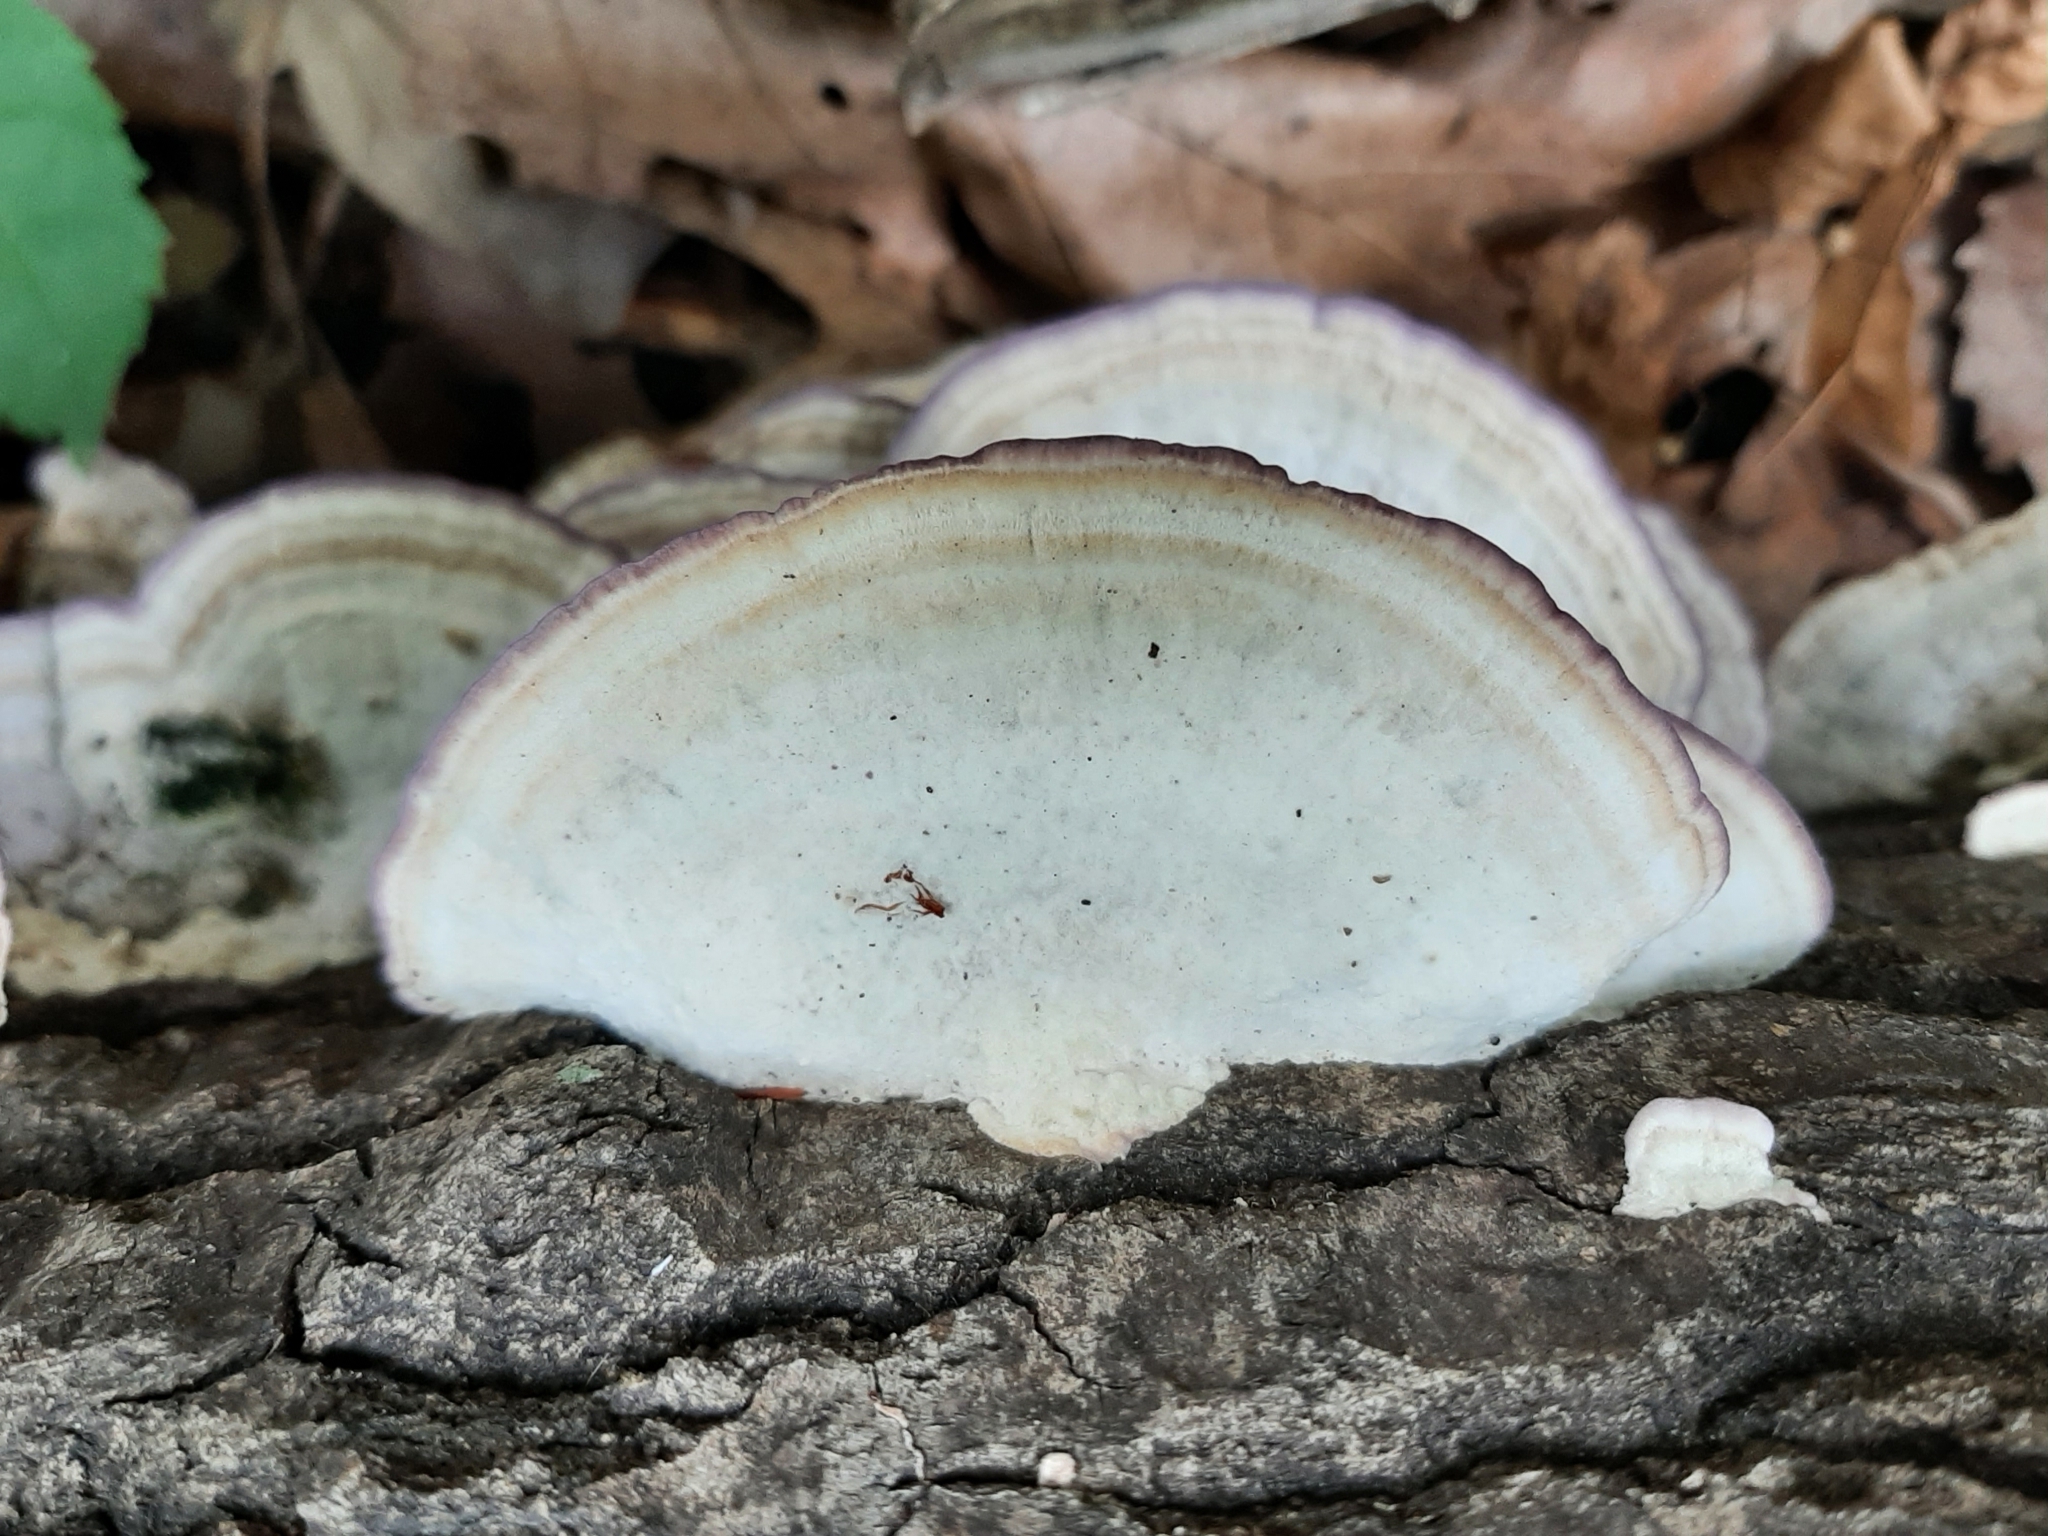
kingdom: Fungi
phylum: Basidiomycota
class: Agaricomycetes
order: Hymenochaetales
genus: Trichaptum
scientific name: Trichaptum biforme
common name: Violet-toothed polypore
